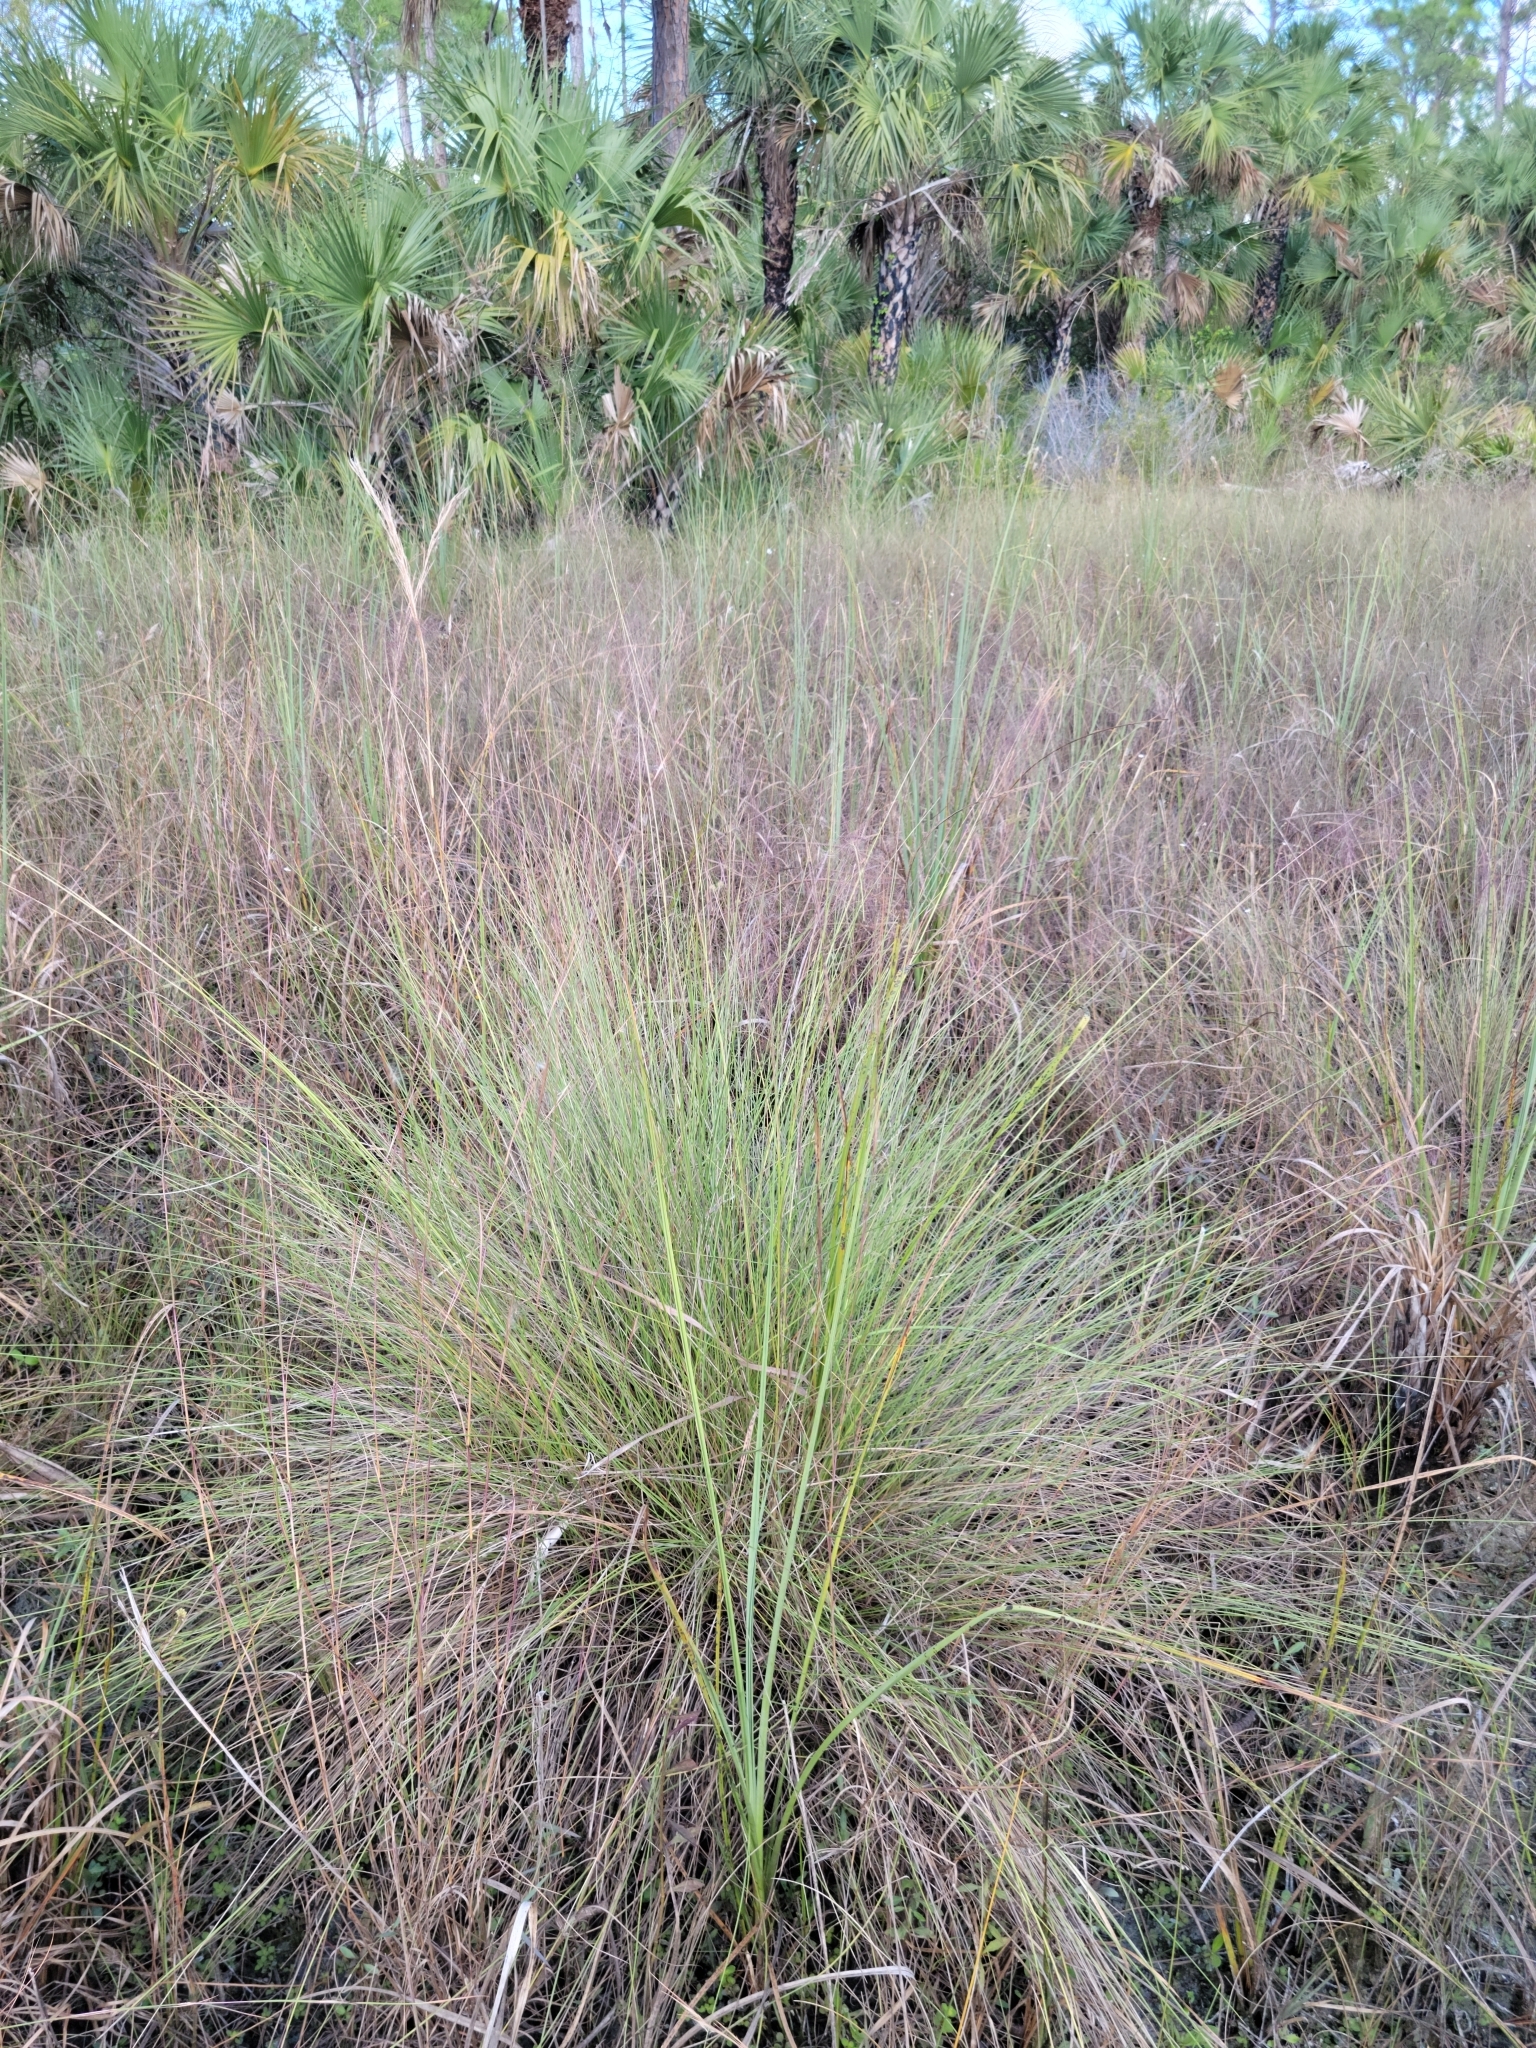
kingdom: Plantae
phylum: Tracheophyta
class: Liliopsida
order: Poales
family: Poaceae
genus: Muhlenbergia
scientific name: Muhlenbergia sericea
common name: Dune-hair grass
